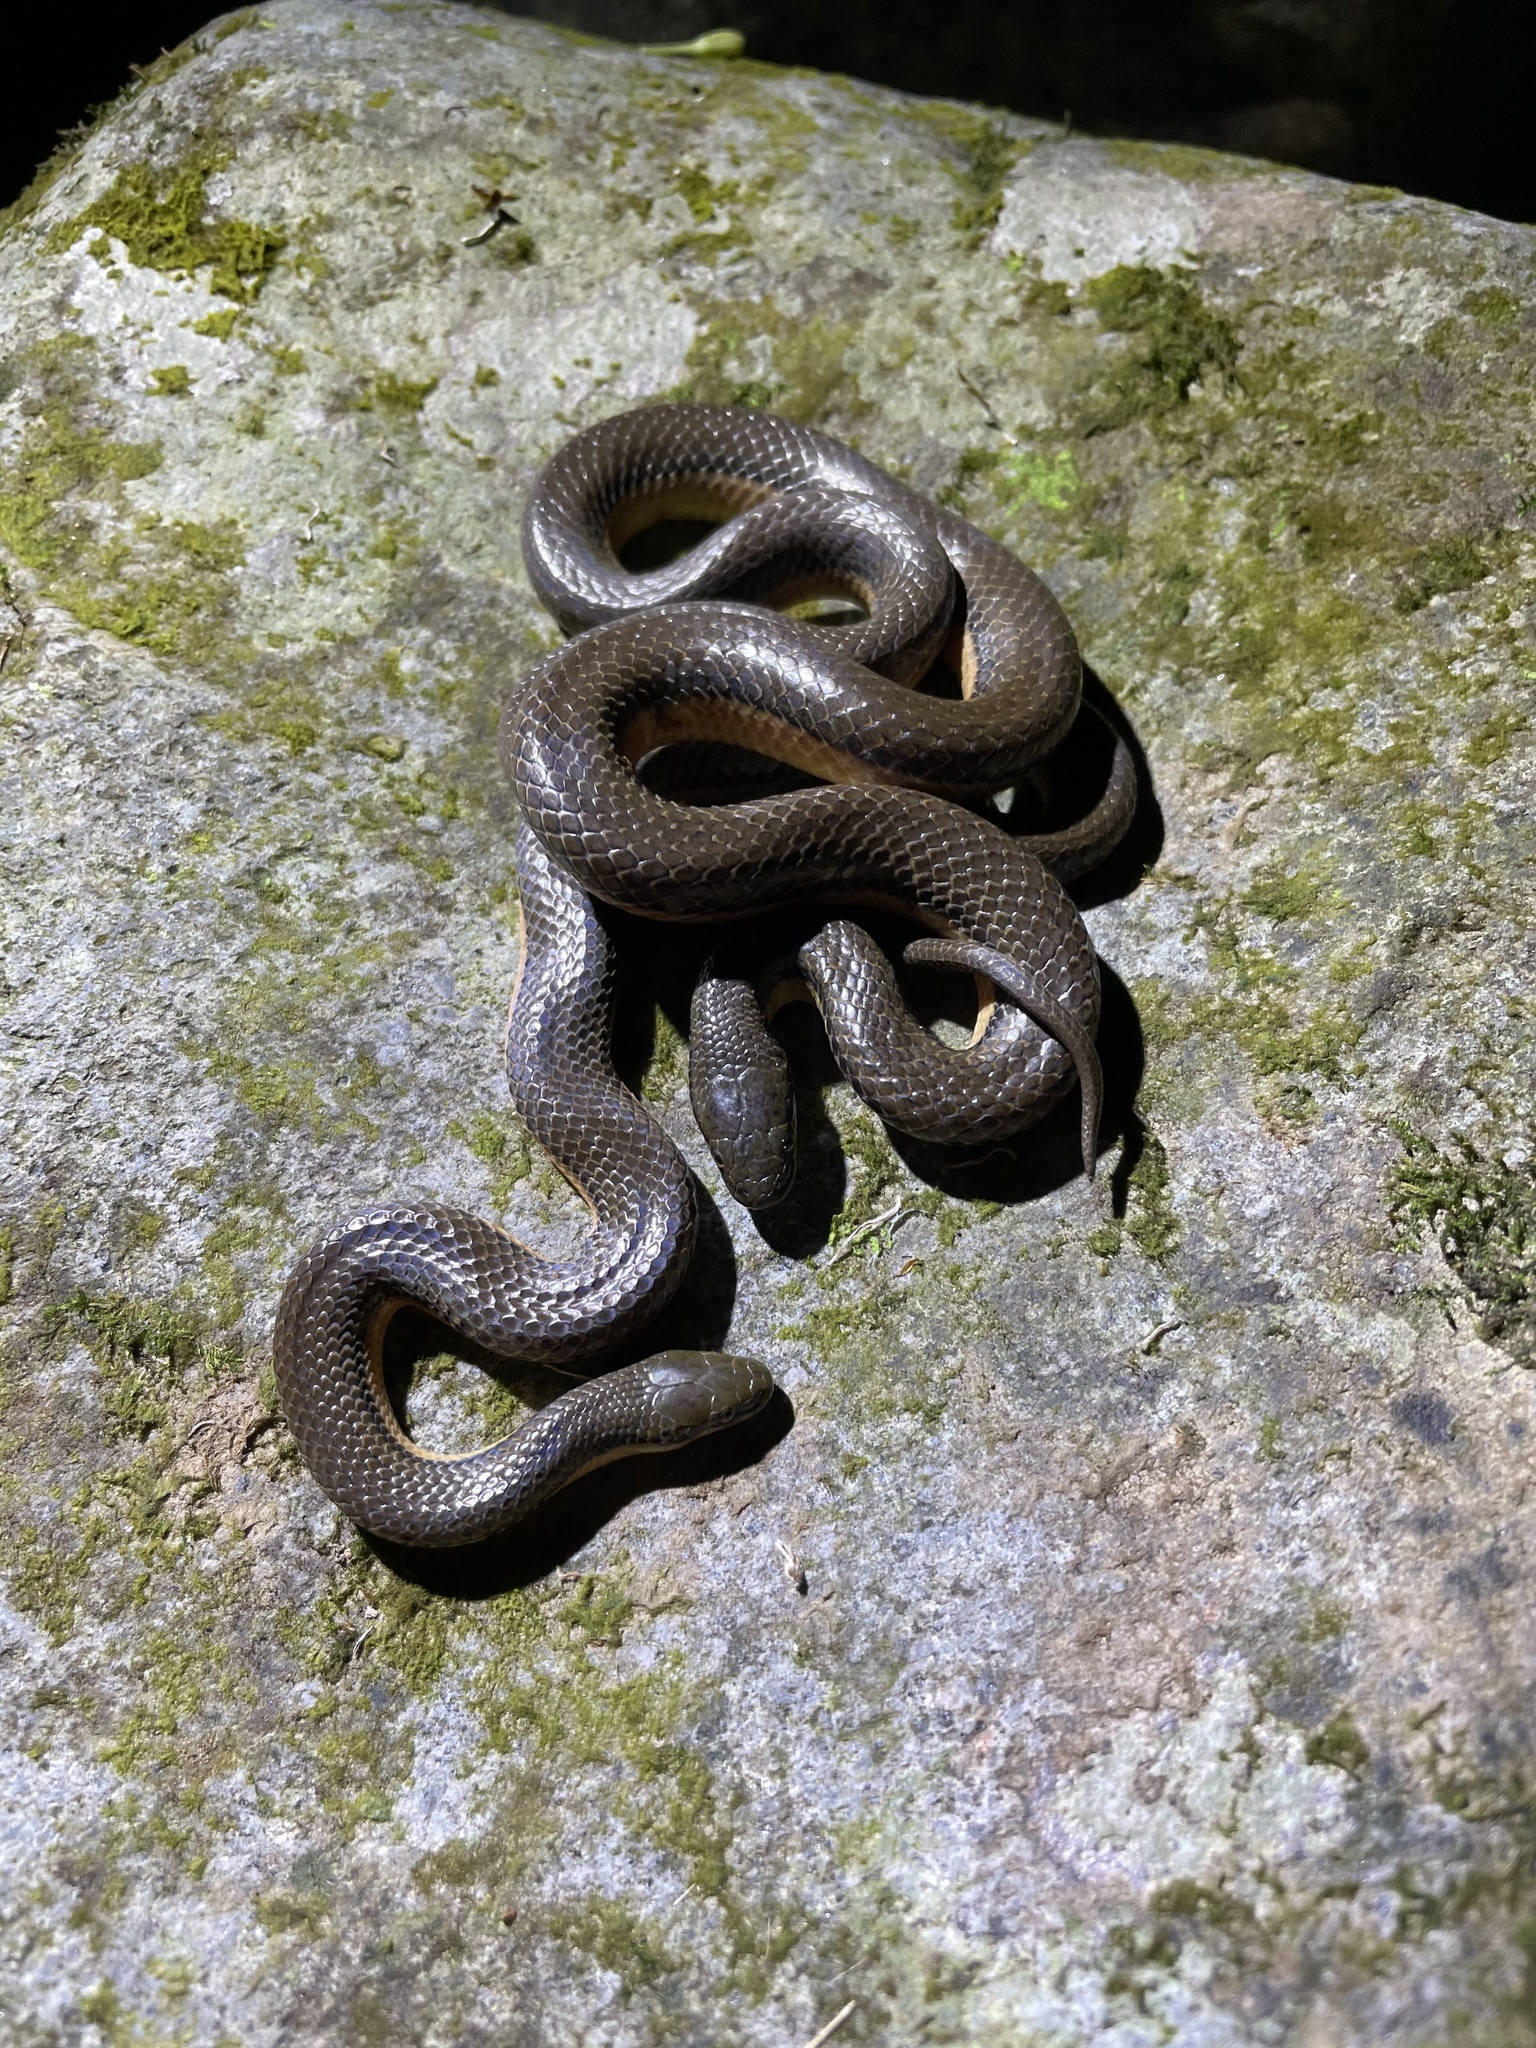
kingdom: Animalia
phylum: Chordata
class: Squamata
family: Colubridae
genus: Opisthotropis
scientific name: Opisthotropis lateralis
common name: Tonkin mountain keelback
